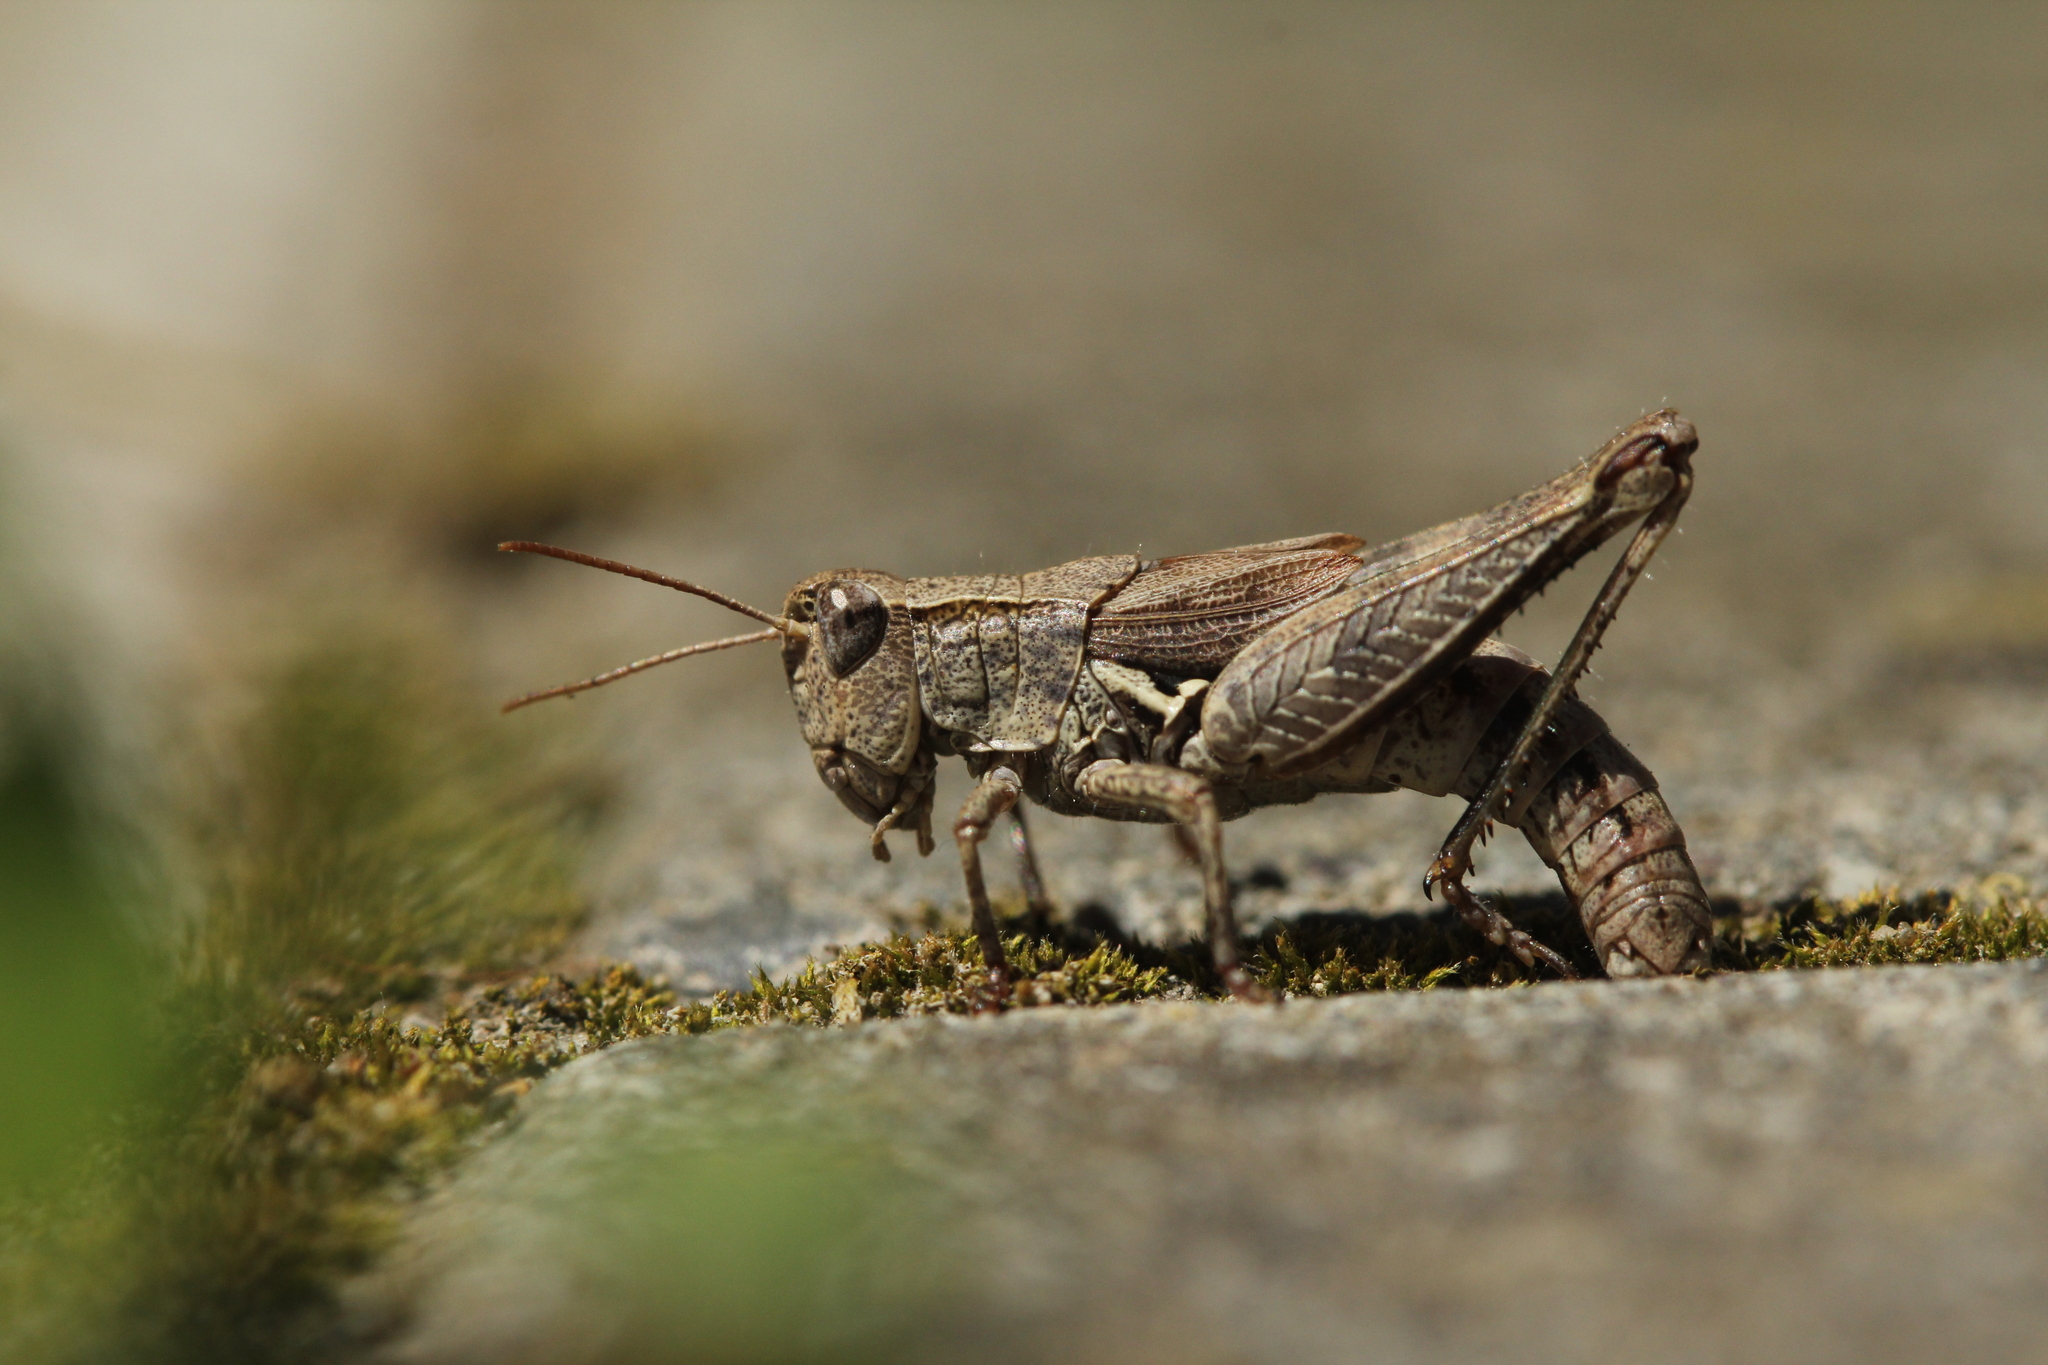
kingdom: Animalia
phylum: Arthropoda
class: Insecta
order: Orthoptera
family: Acrididae
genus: Phaulacridium
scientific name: Phaulacridium marginale
